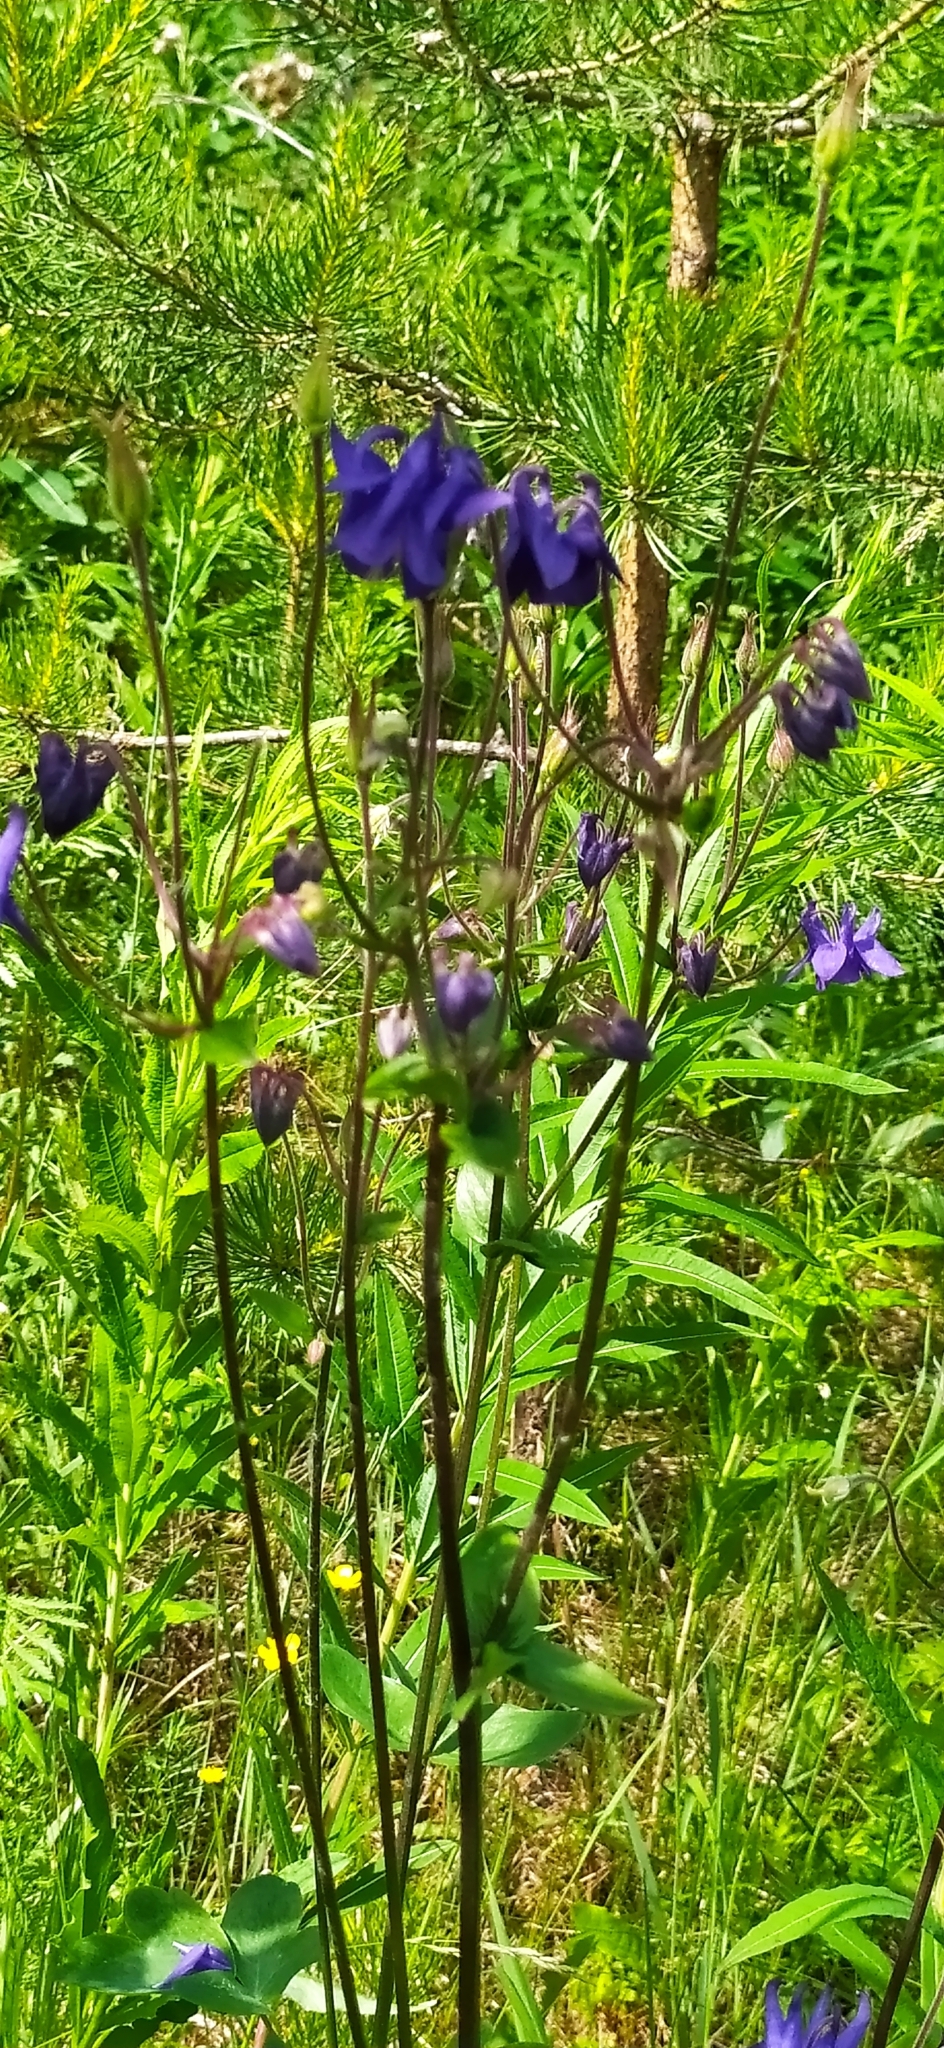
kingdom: Plantae
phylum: Tracheophyta
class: Magnoliopsida
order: Ranunculales
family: Ranunculaceae
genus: Aquilegia
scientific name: Aquilegia vulgaris
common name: Columbine
